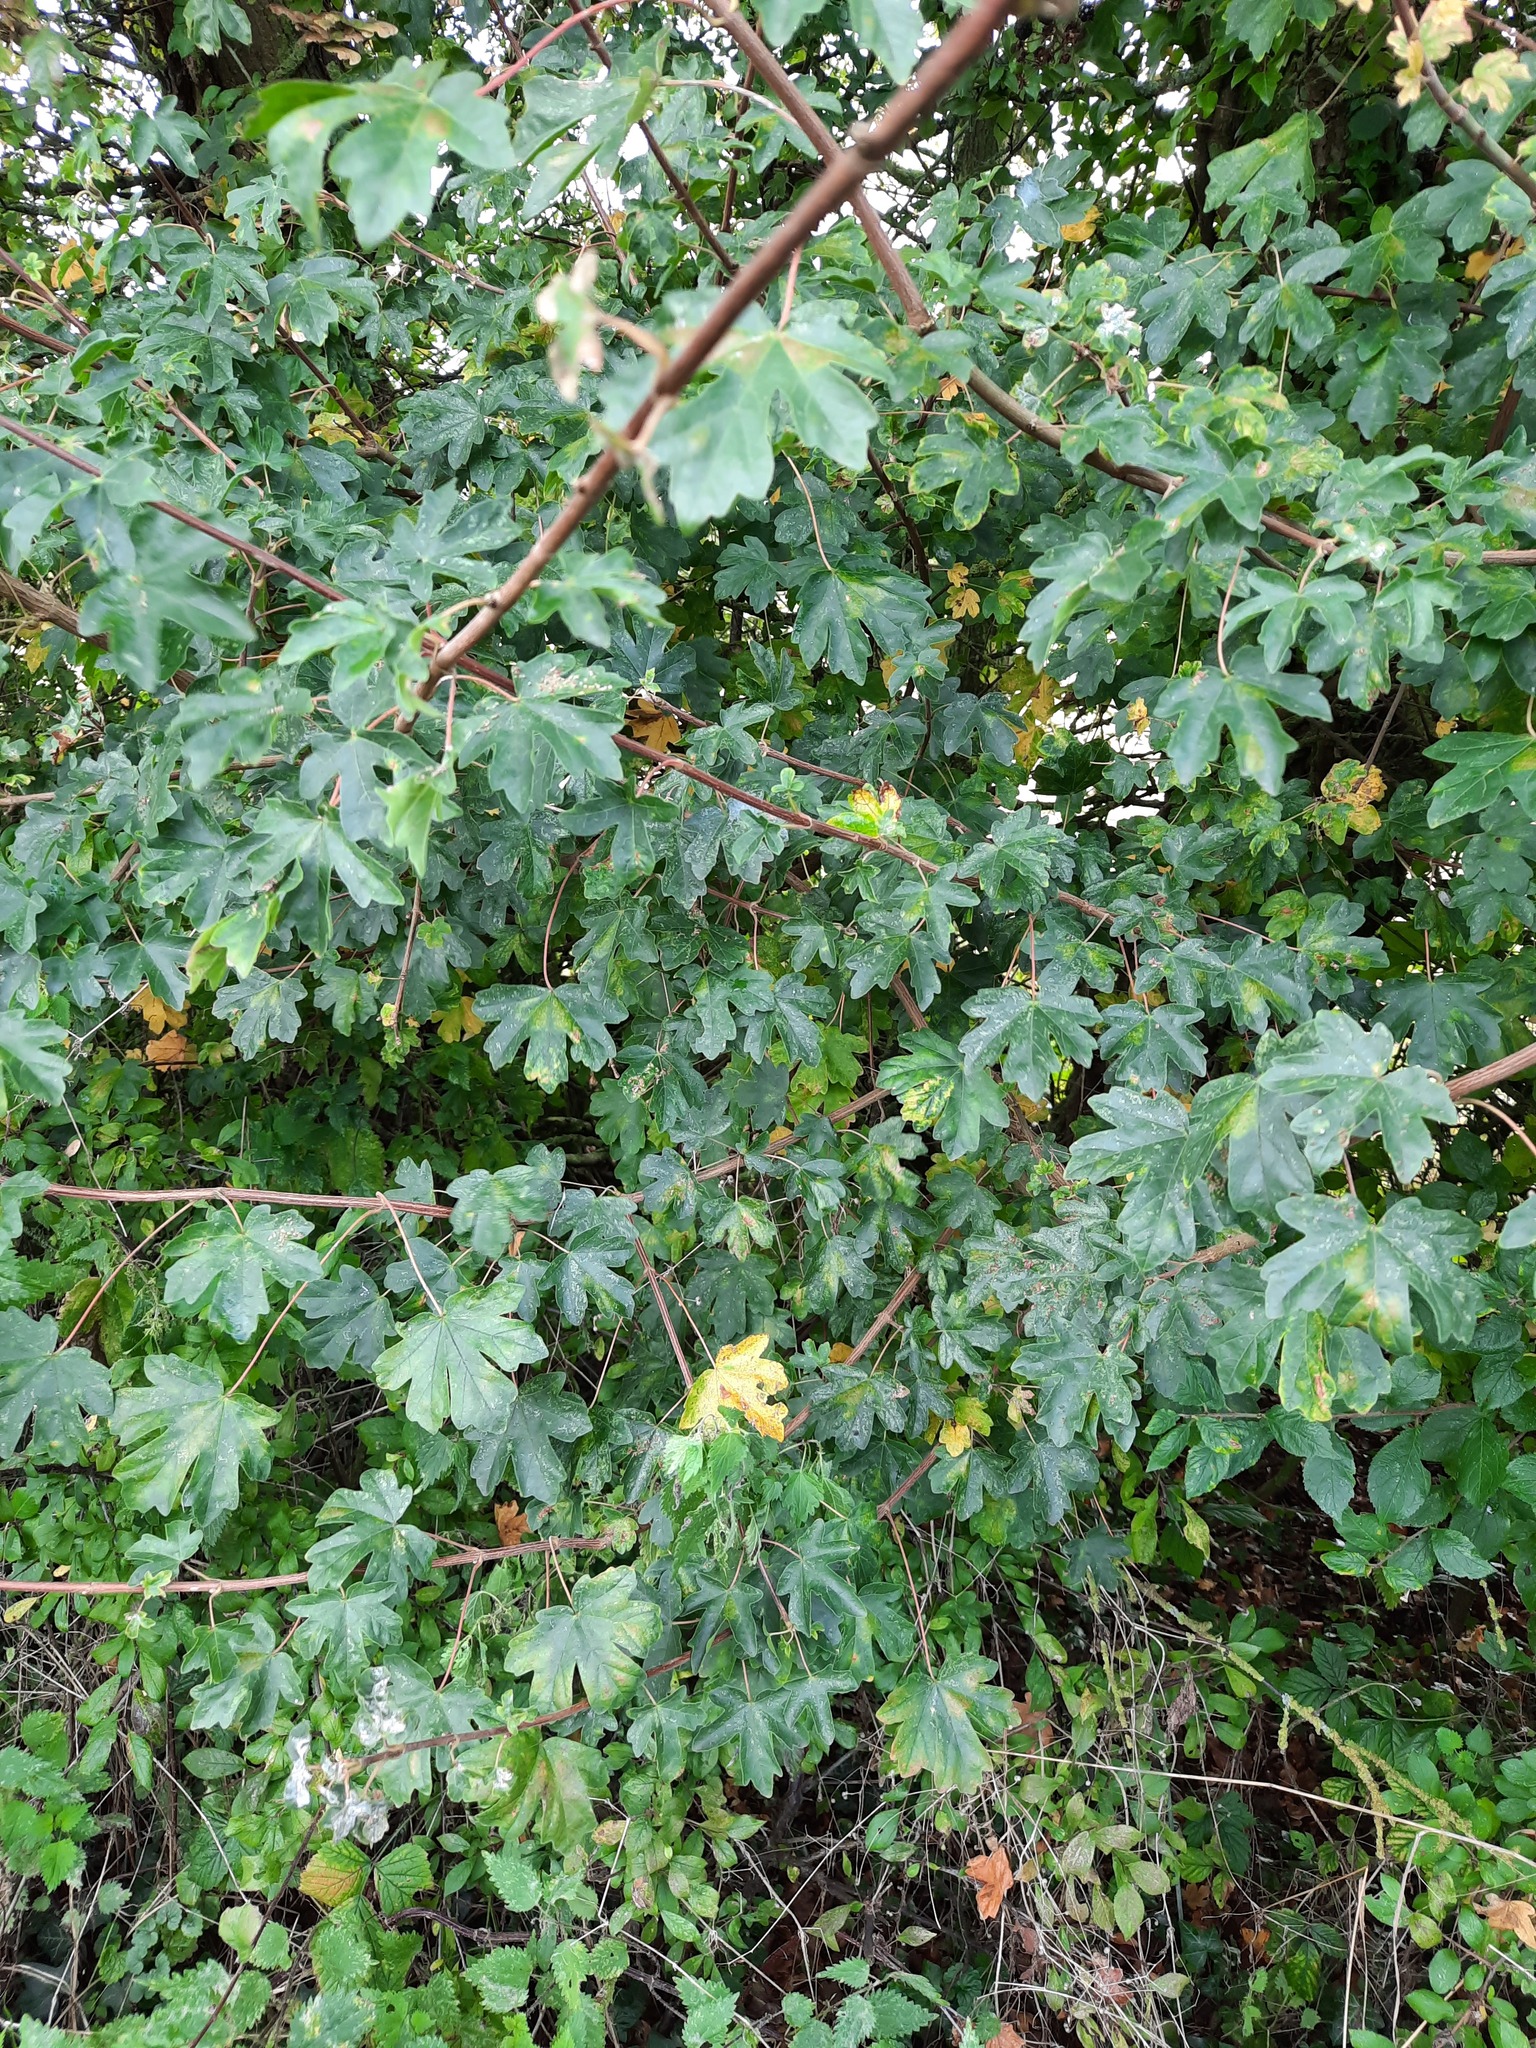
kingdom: Plantae
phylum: Tracheophyta
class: Magnoliopsida
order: Sapindales
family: Sapindaceae
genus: Acer
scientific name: Acer campestre
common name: Field maple
